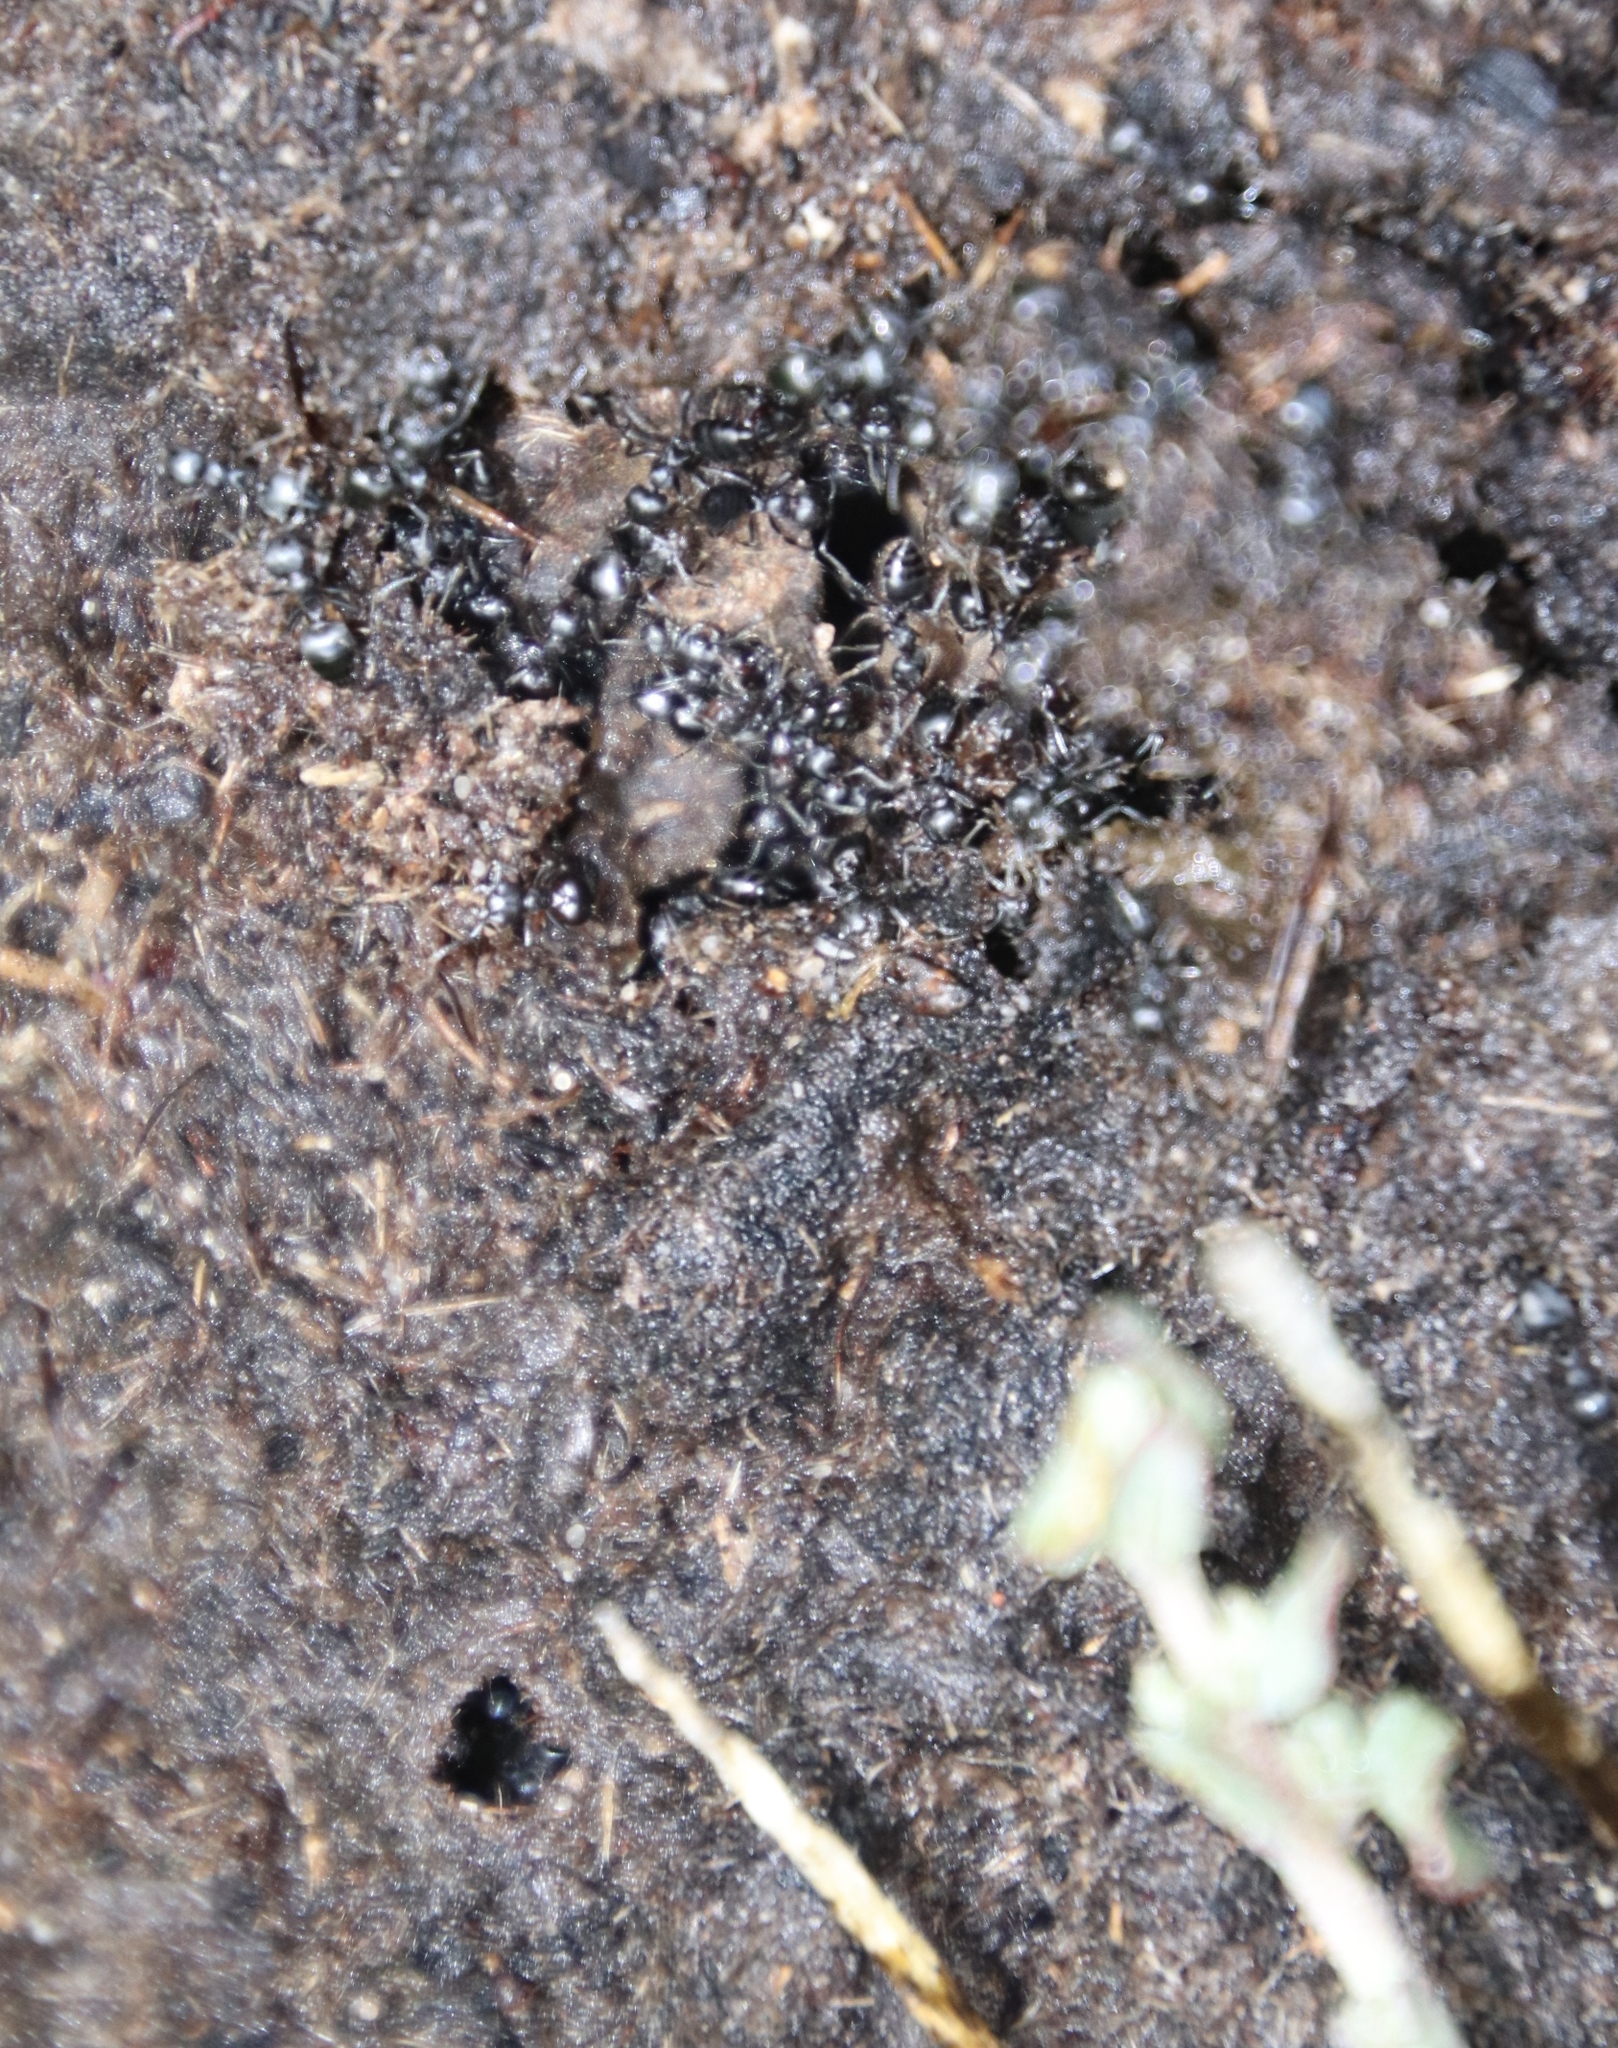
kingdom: Animalia
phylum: Arthropoda
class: Insecta
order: Hymenoptera
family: Formicidae
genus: Crematogaster
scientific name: Crematogaster peringueyi
